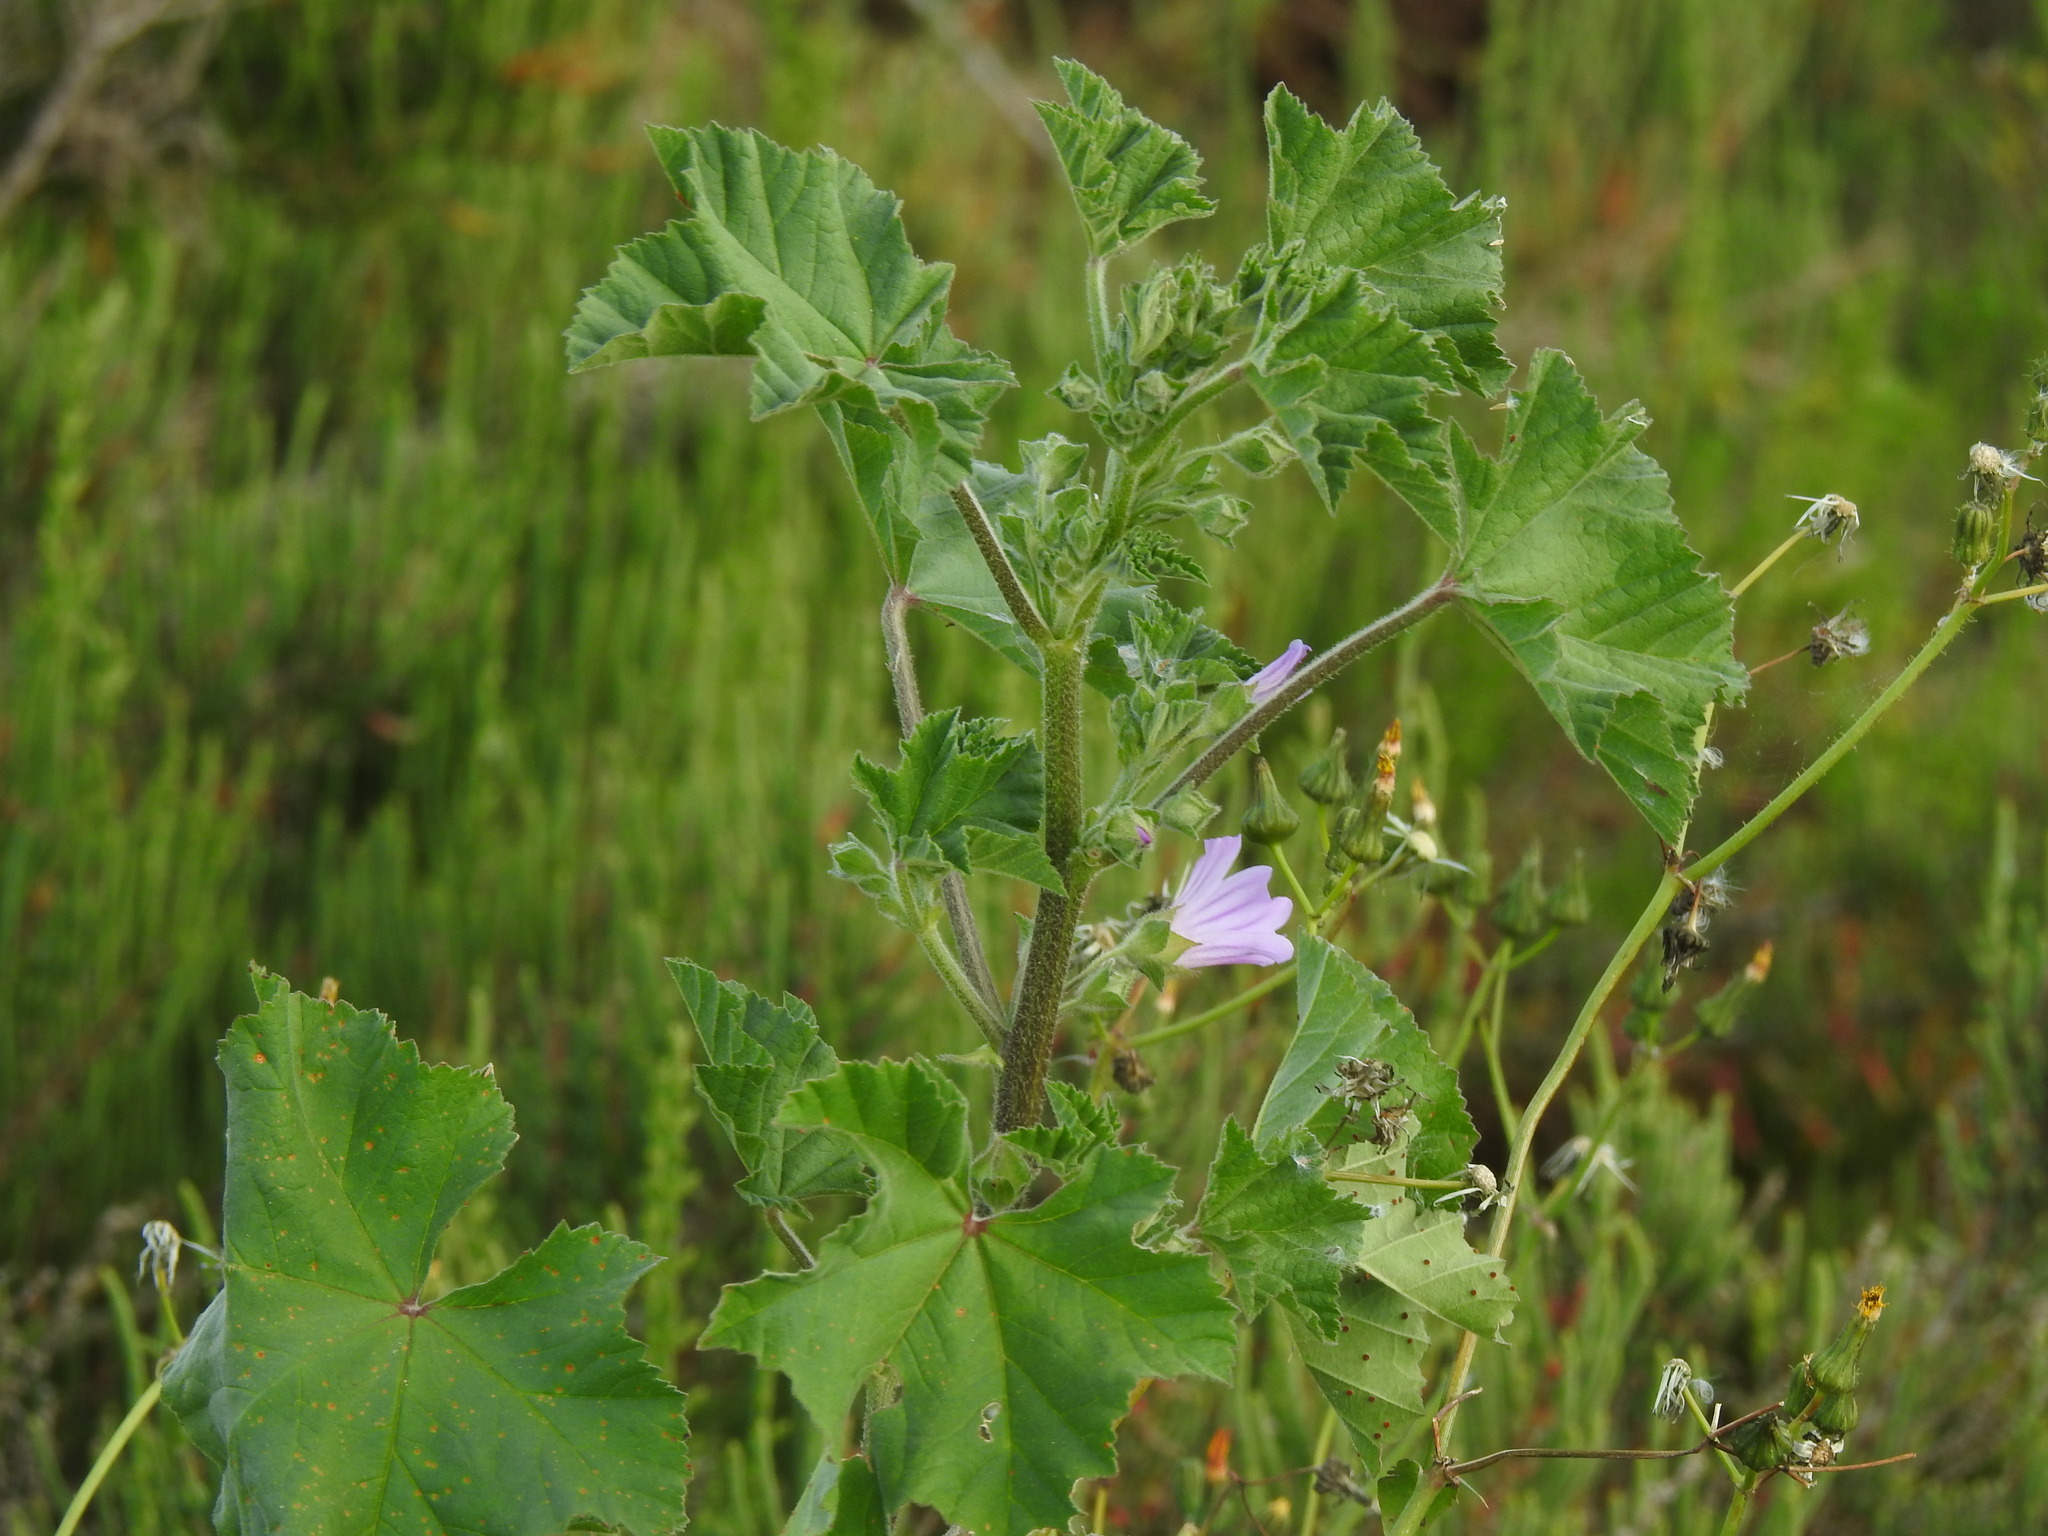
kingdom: Plantae
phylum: Tracheophyta
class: Magnoliopsida
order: Malvales
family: Malvaceae
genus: Malva
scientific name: Malva multiflora
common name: Cheeseweed
